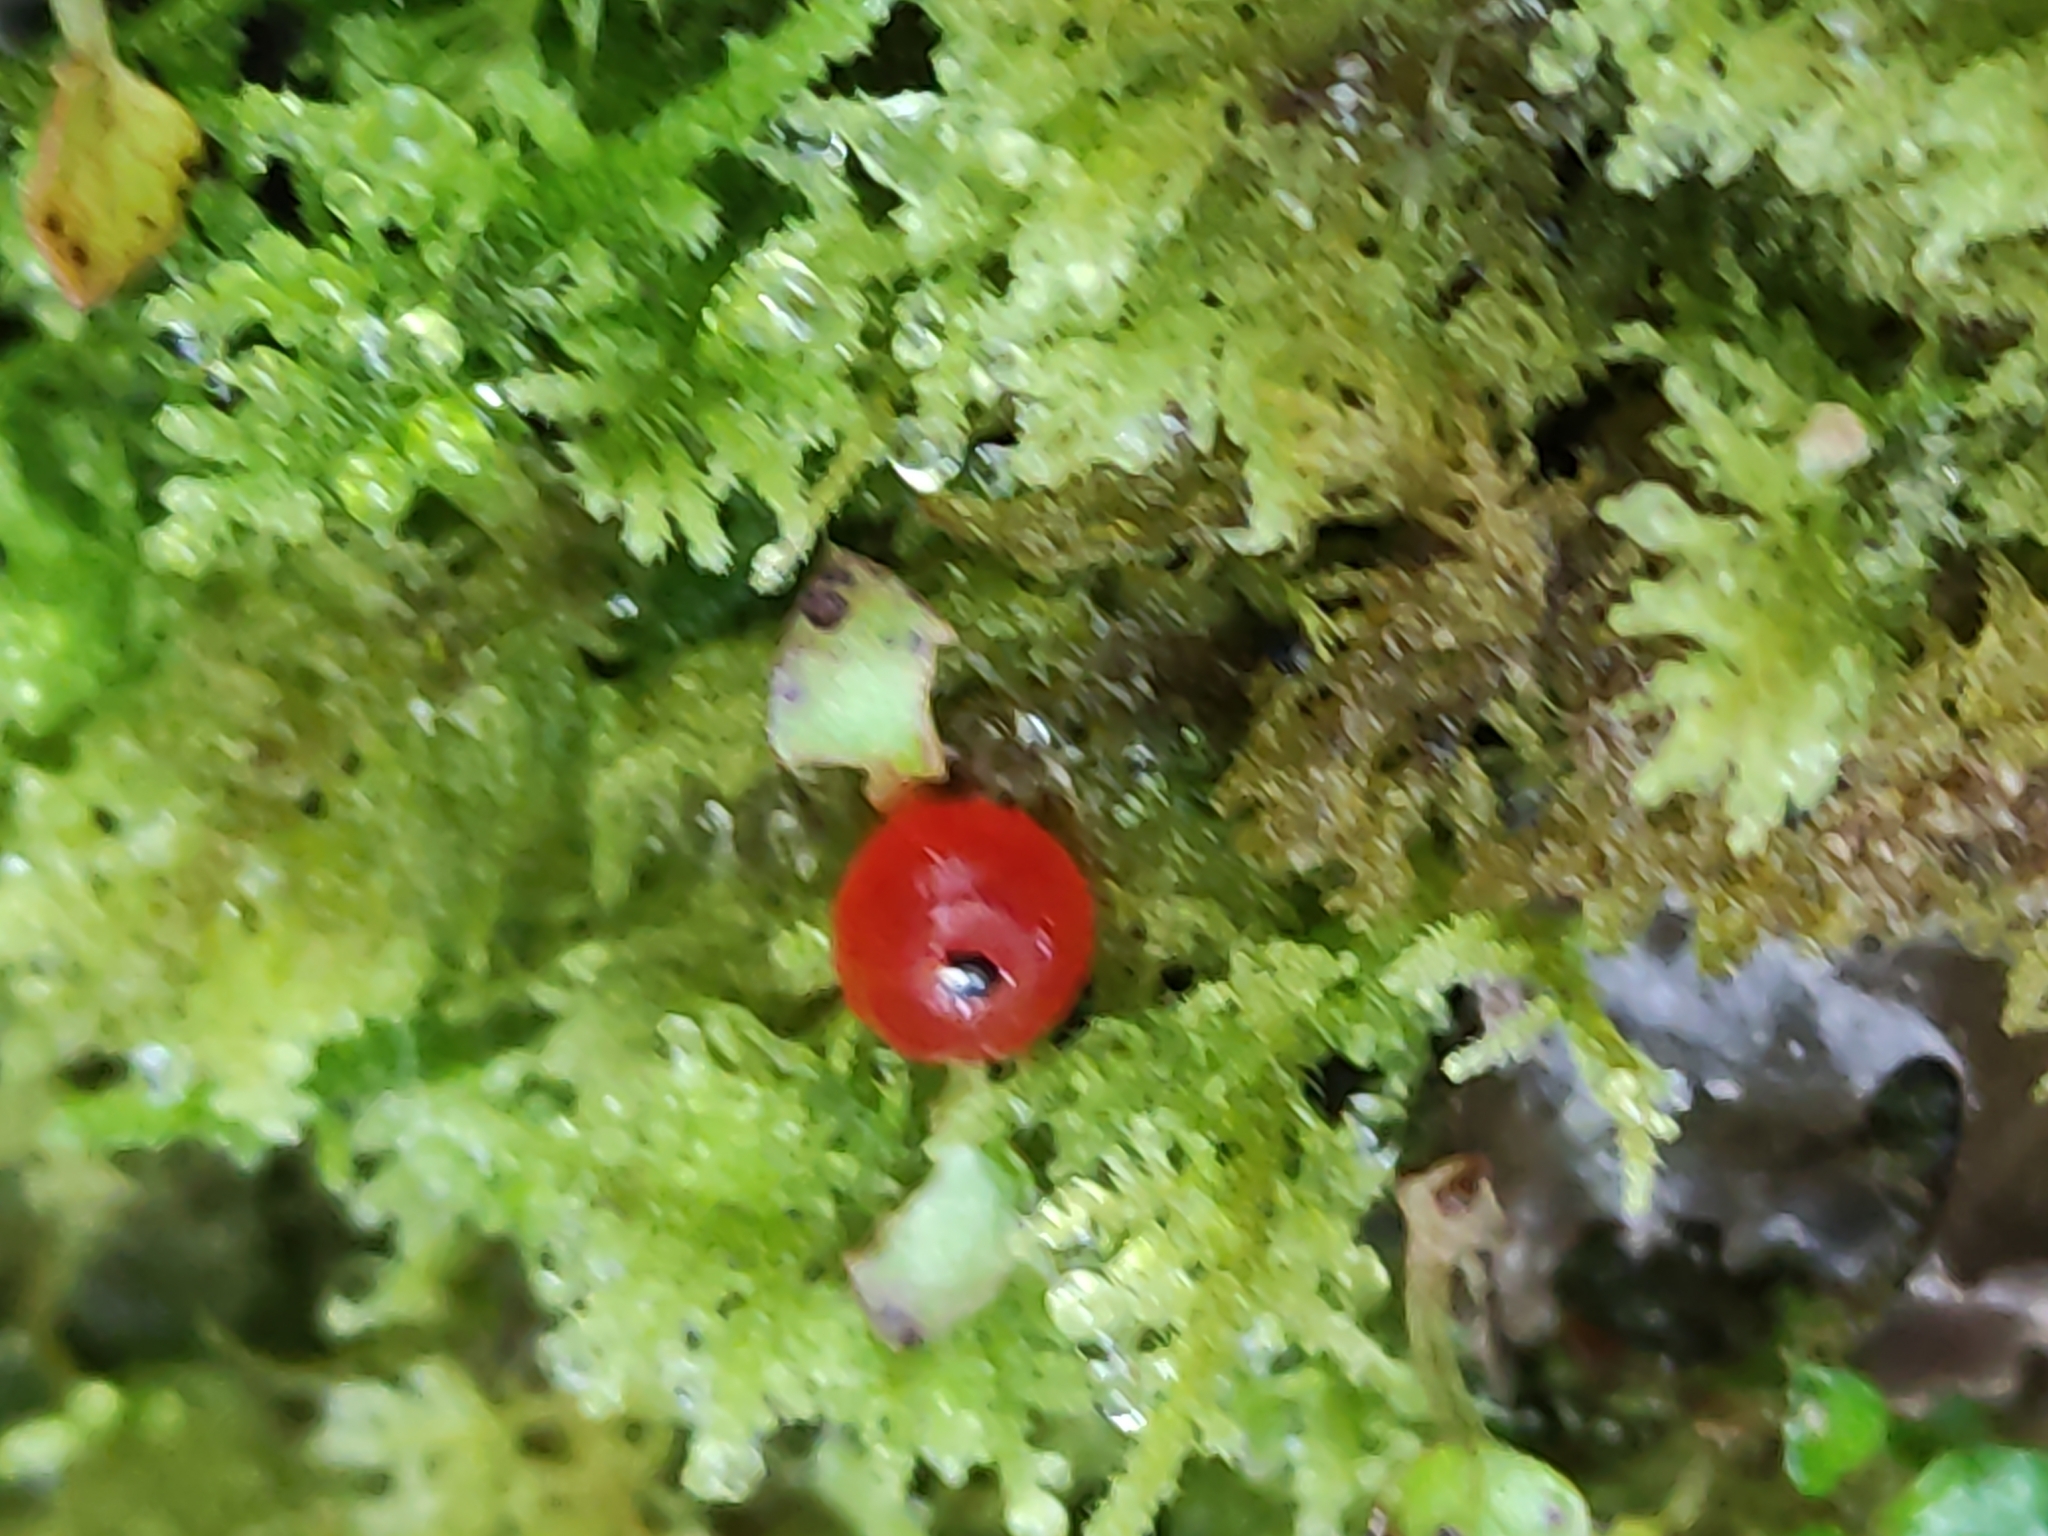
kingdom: Plantae
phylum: Tracheophyta
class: Magnoliopsida
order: Gentianales
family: Rubiaceae
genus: Nertera
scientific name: Nertera granadensis
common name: Beadplant
